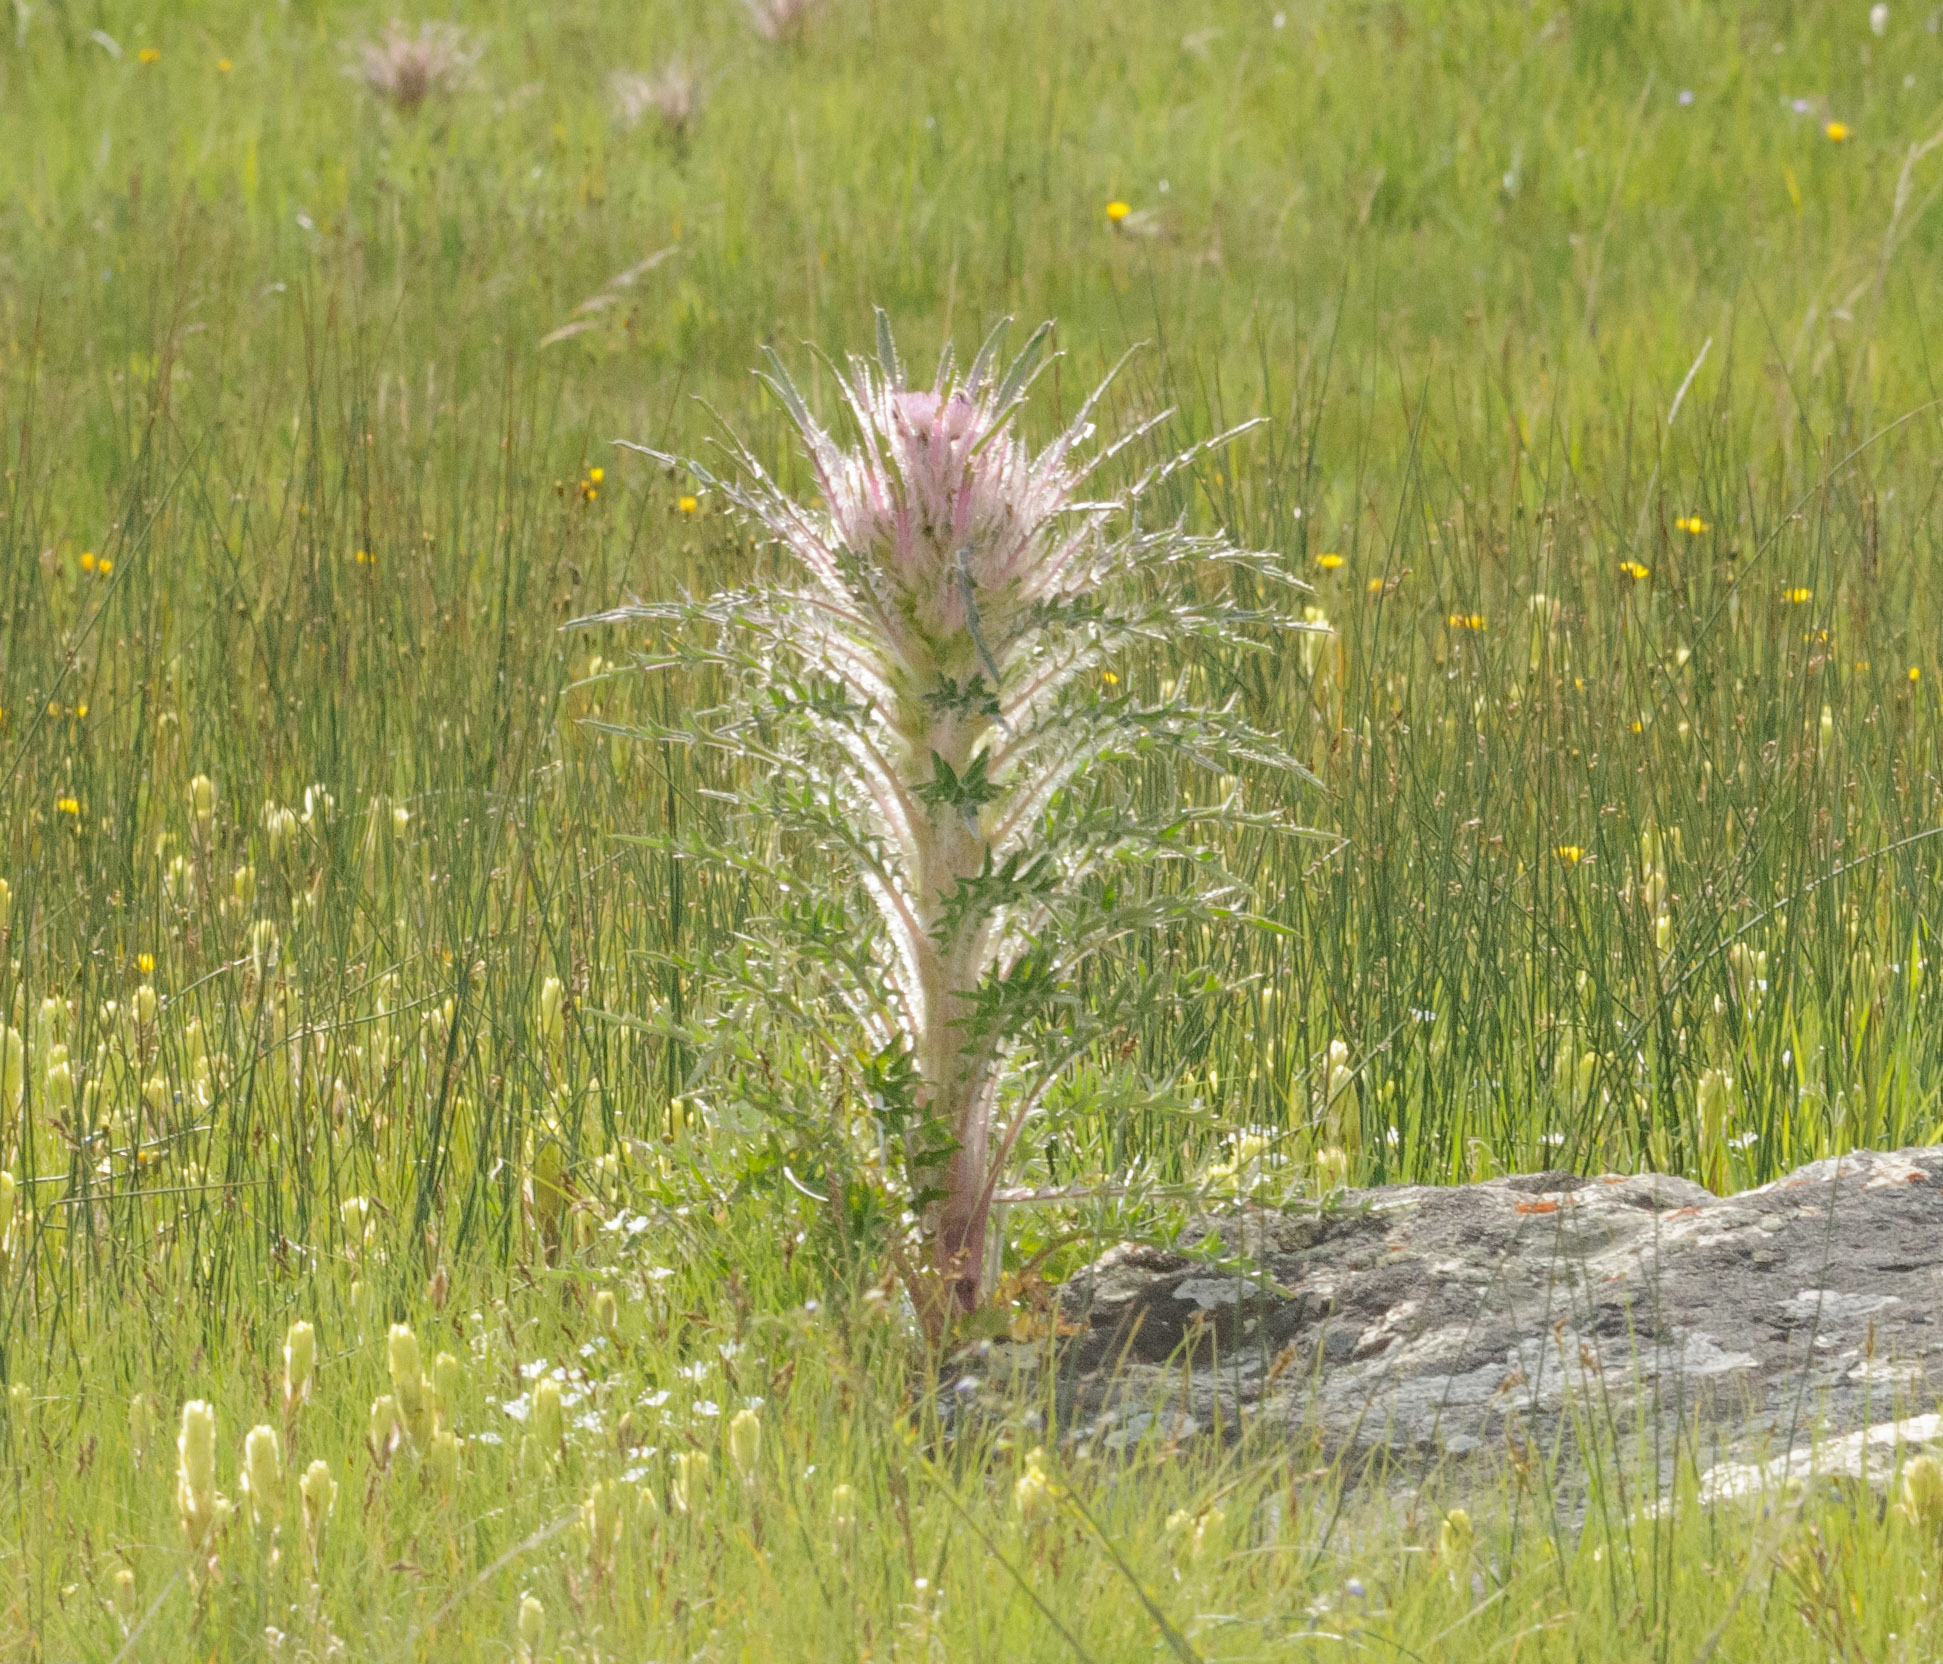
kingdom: Plantae
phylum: Tracheophyta
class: Magnoliopsida
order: Asterales
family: Asteraceae
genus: Cirsium
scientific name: Cirsium scariosum
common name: Meadow thistle
